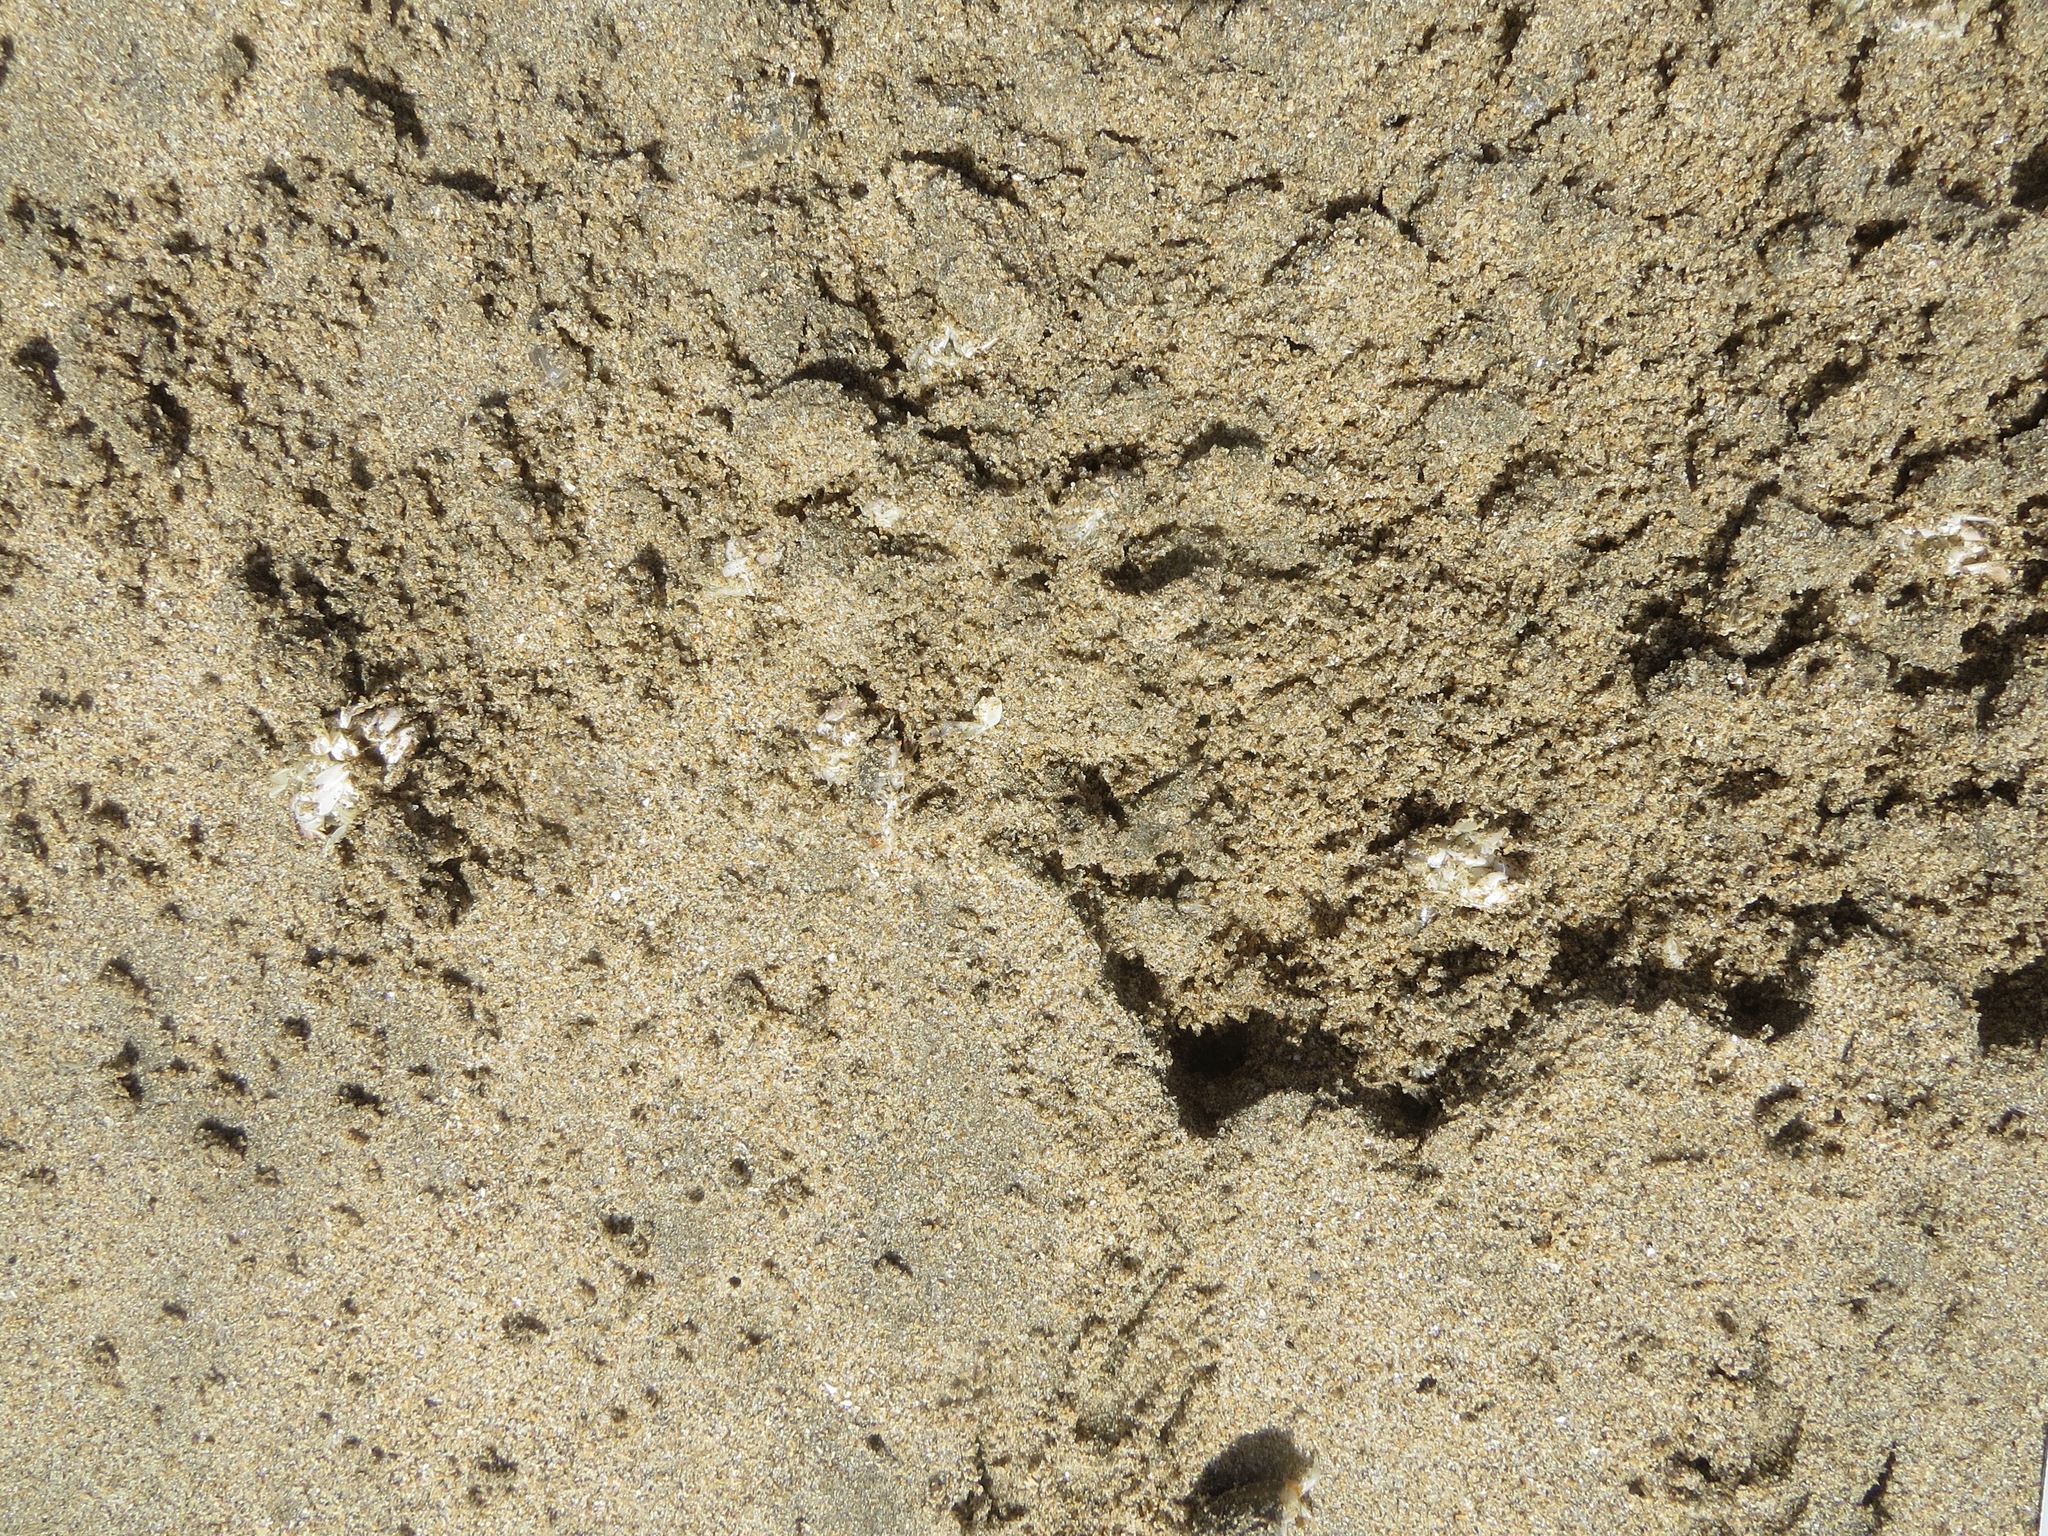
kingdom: Animalia
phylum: Chordata
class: Aves
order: Passeriformes
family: Corvidae
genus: Corvus
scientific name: Corvus corax
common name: Common raven
